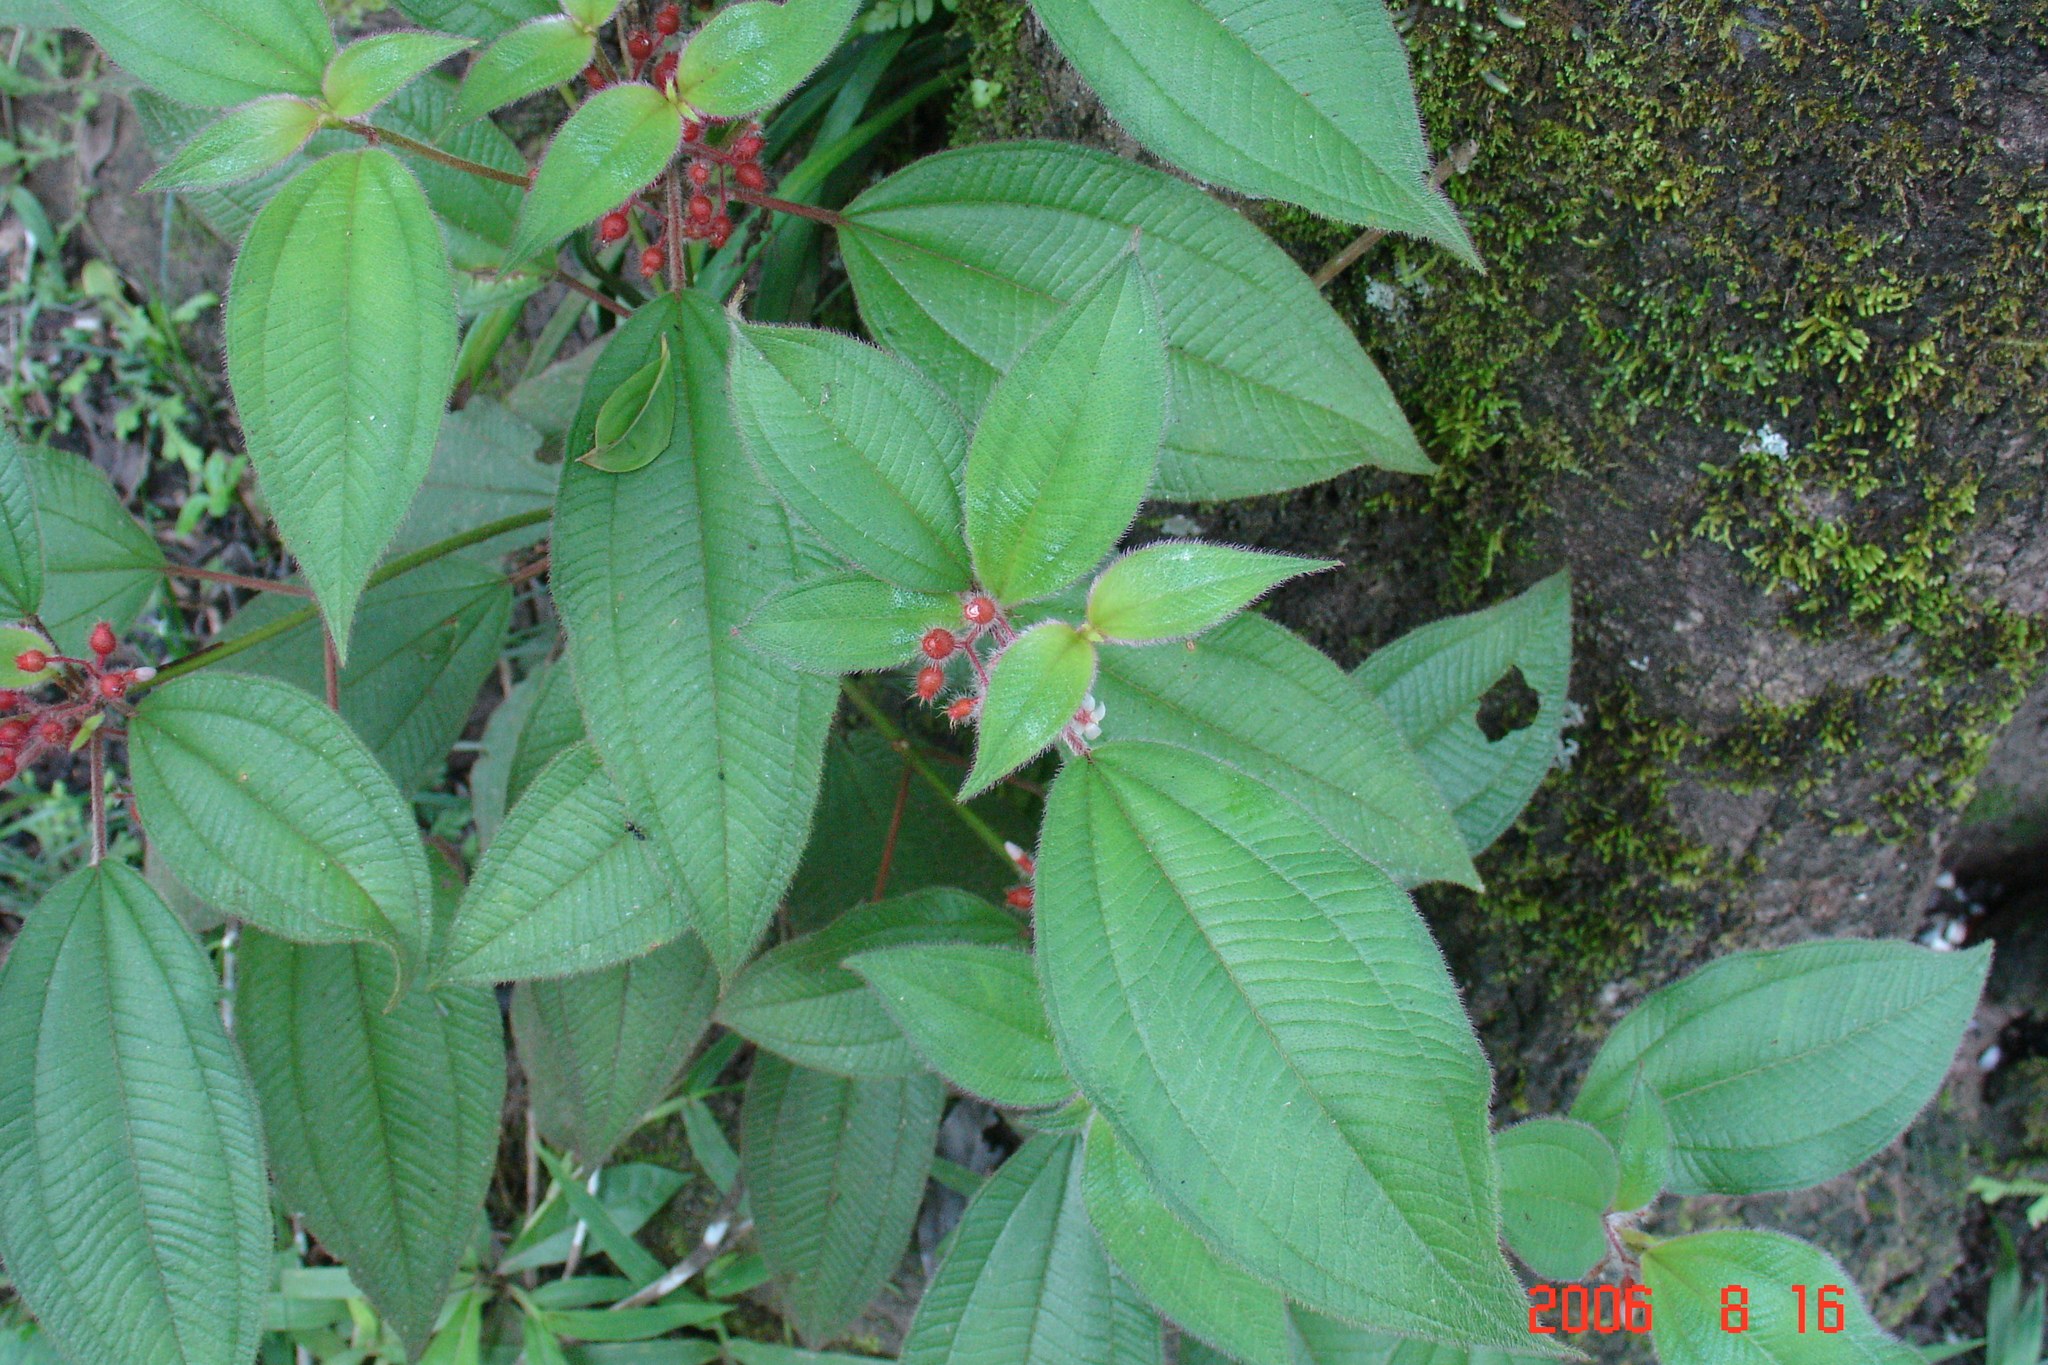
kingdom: Plantae
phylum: Tracheophyta
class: Magnoliopsida
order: Myrtales
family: Melastomataceae
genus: Miconia
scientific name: Miconia petiolaris
